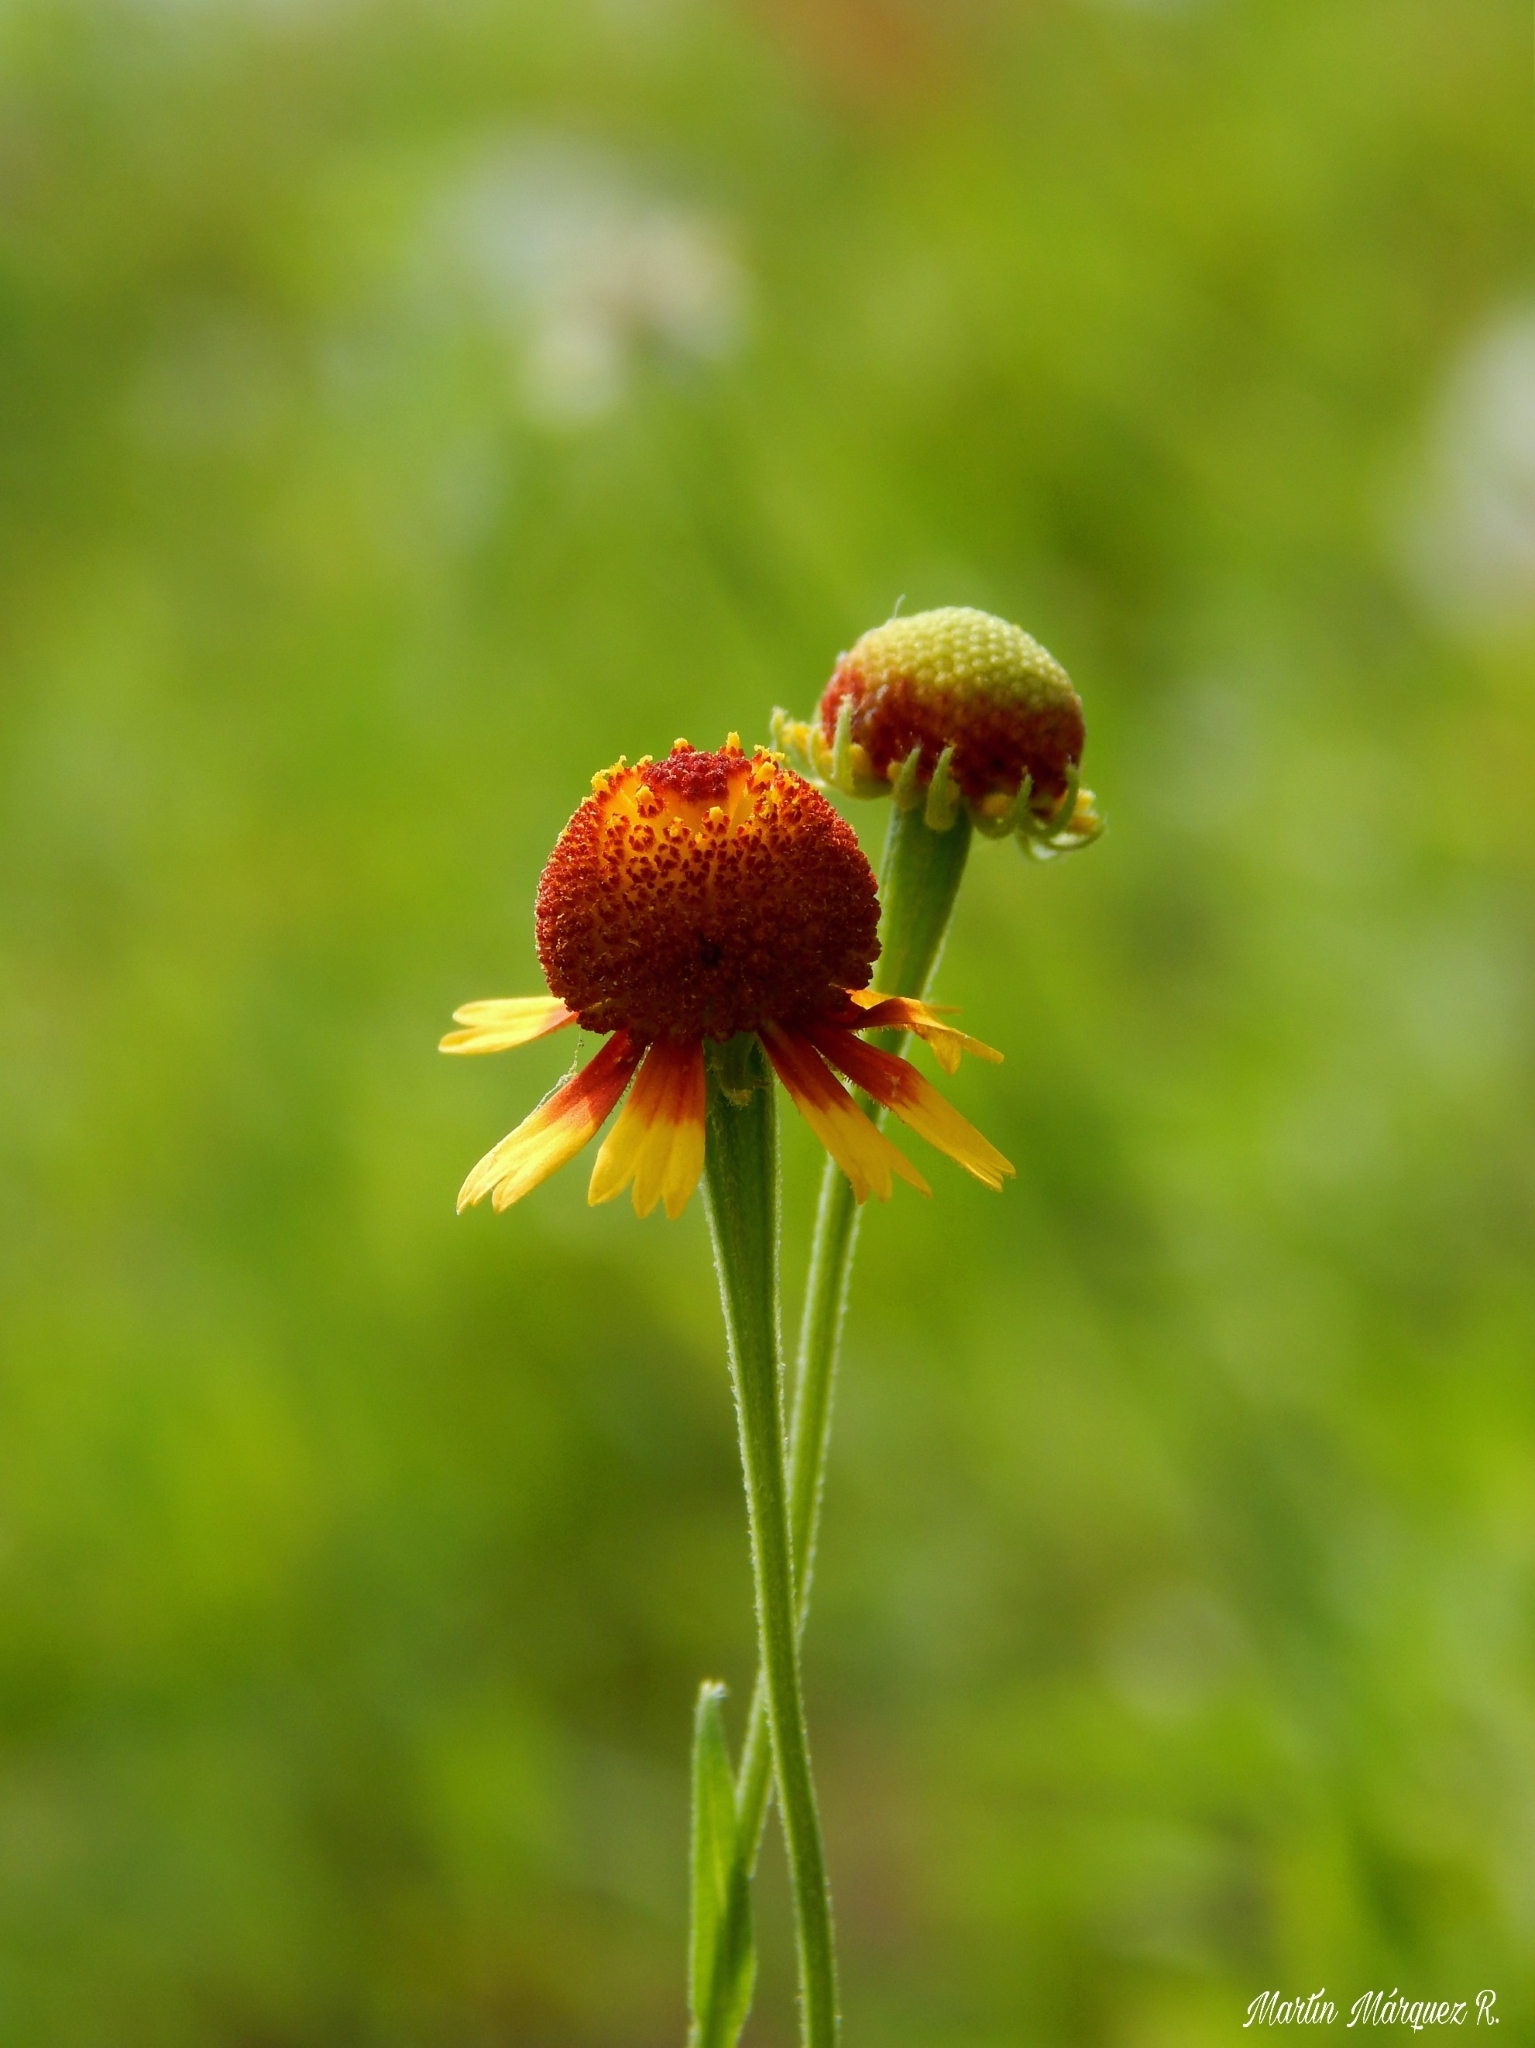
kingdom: Plantae
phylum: Tracheophyta
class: Magnoliopsida
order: Asterales
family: Asteraceae
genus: Helenium
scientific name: Helenium amphibolum
